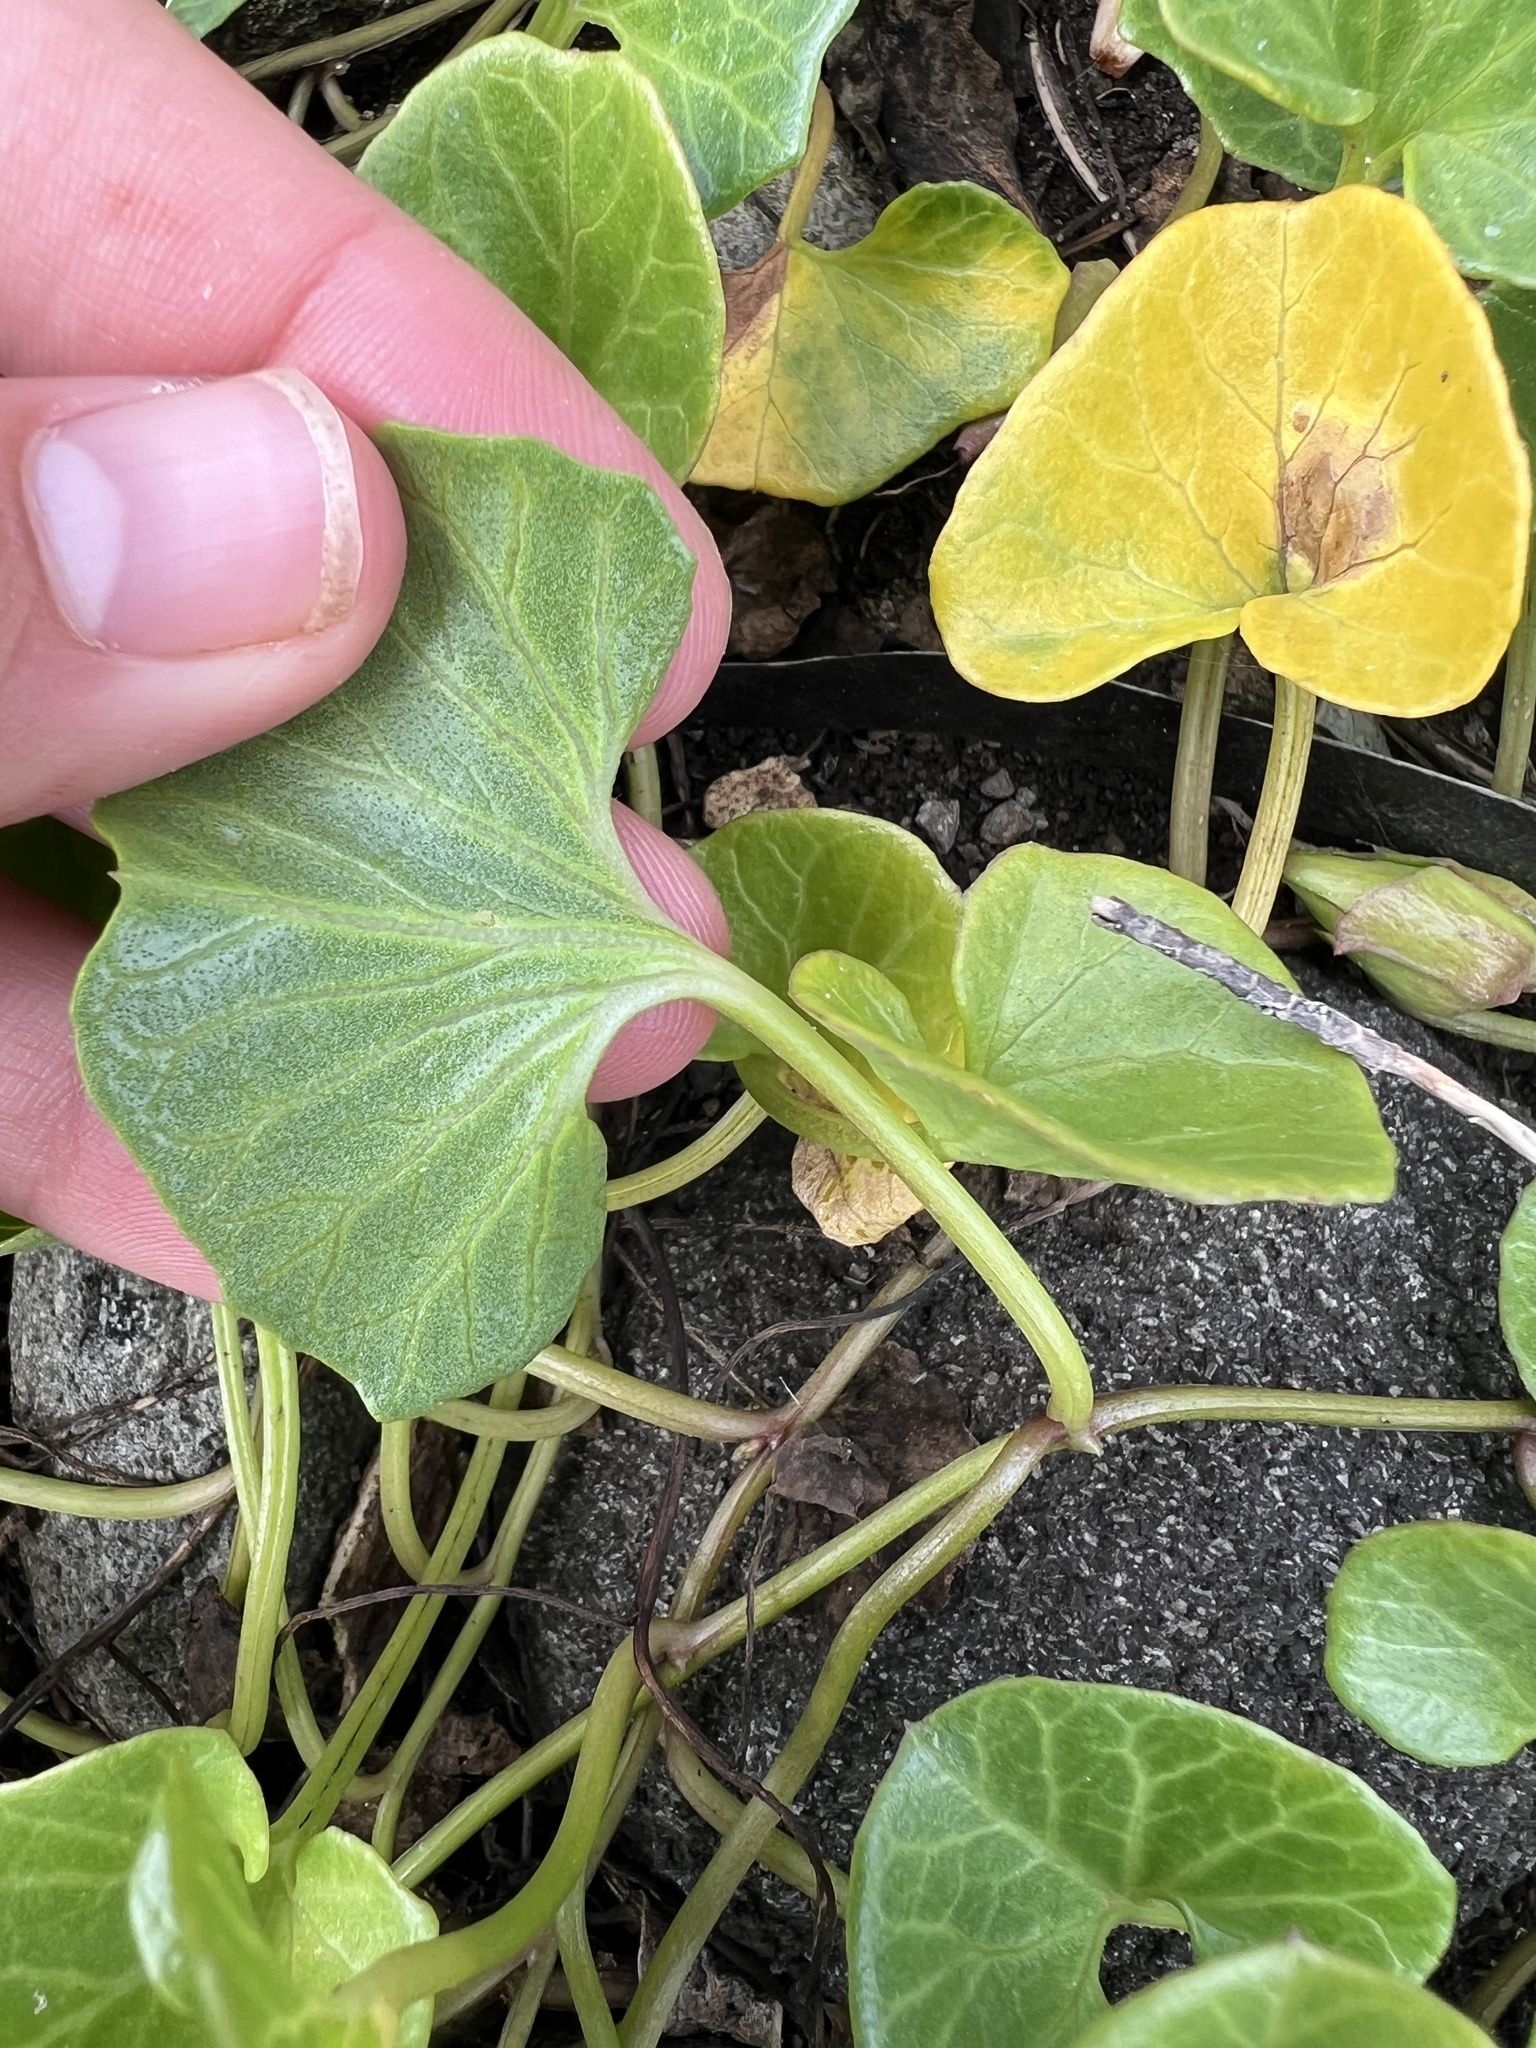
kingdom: Plantae
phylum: Tracheophyta
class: Magnoliopsida
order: Solanales
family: Convolvulaceae
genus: Calystegia
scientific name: Calystegia soldanella
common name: Sea bindweed
